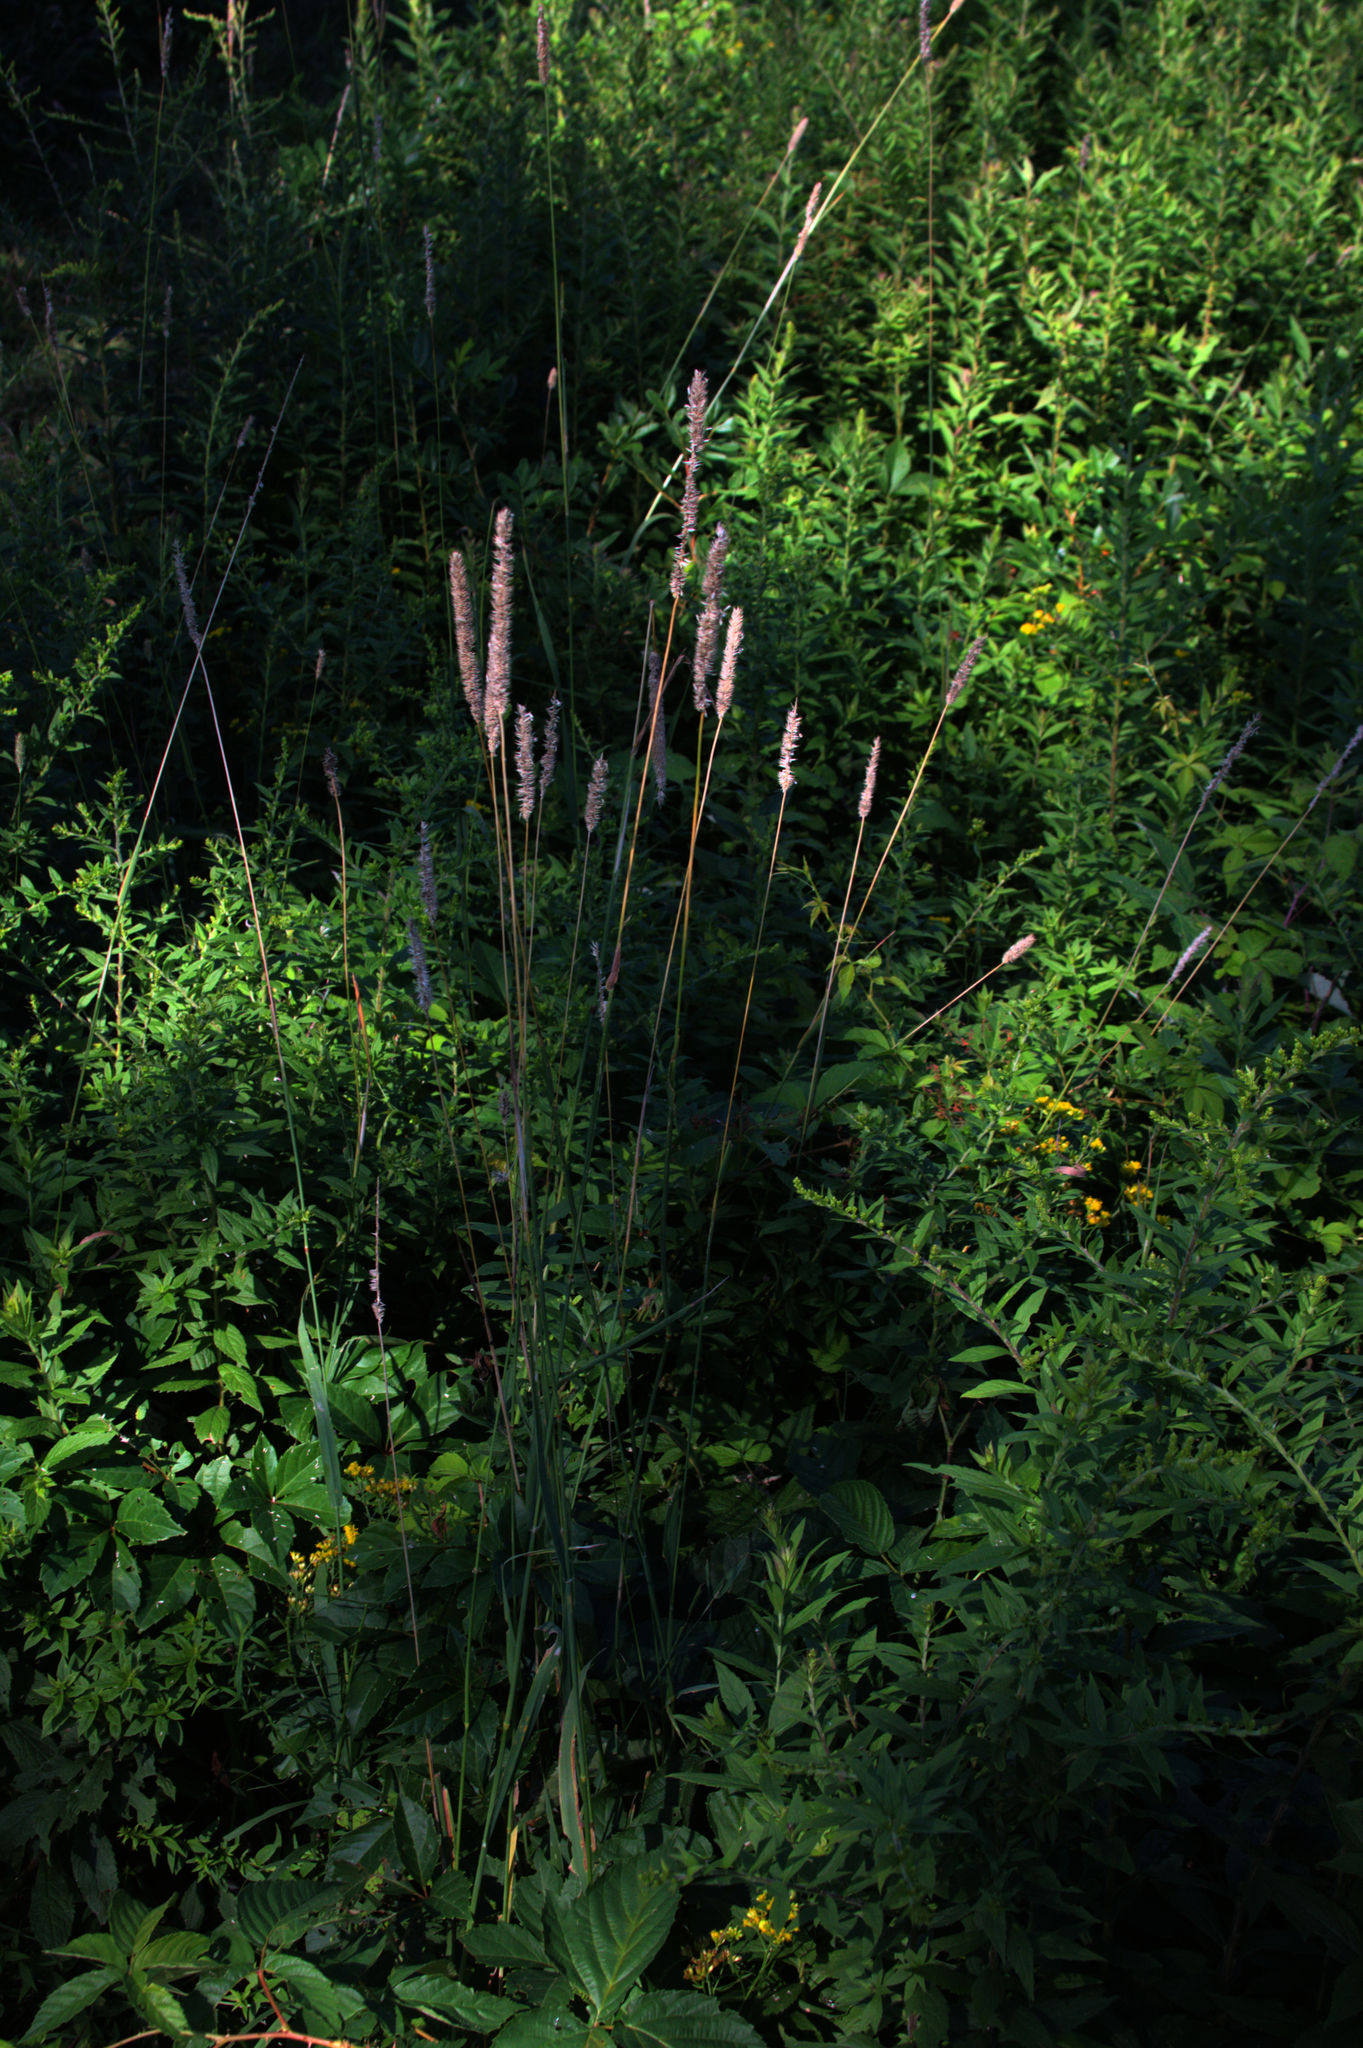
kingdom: Plantae
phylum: Tracheophyta
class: Liliopsida
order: Poales
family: Poaceae
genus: Phleum
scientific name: Phleum pratense
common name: Timothy grass
